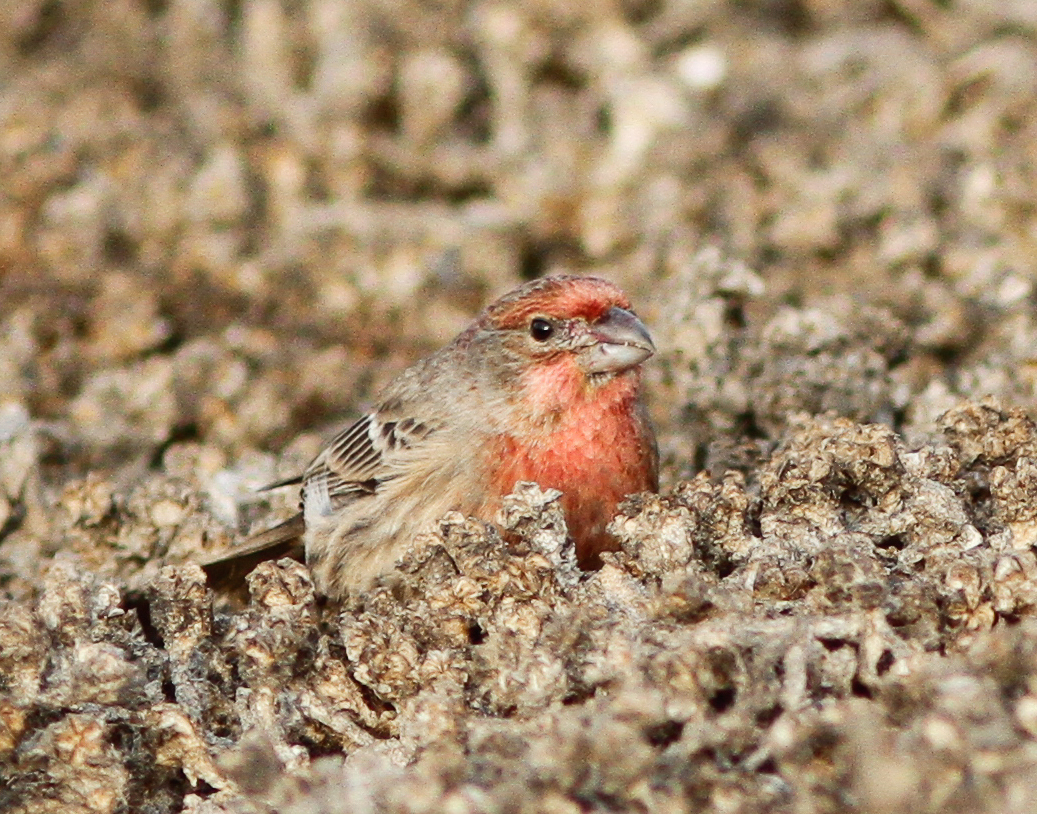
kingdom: Animalia
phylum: Chordata
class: Aves
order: Passeriformes
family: Fringillidae
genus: Haemorhous
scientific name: Haemorhous mexicanus
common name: House finch
